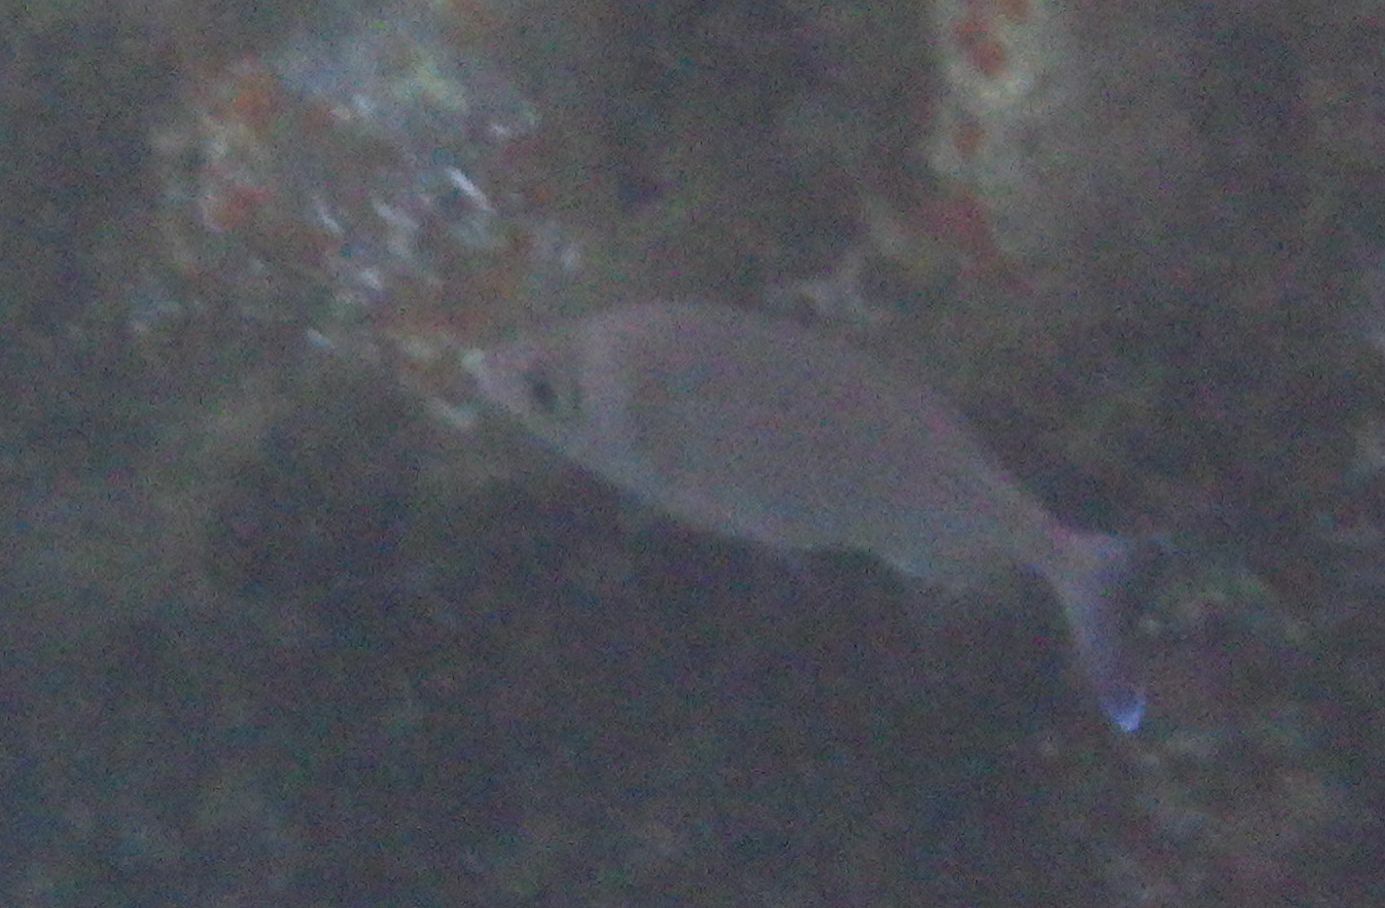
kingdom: Animalia
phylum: Chordata
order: Perciformes
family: Sparidae
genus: Spondyliosoma
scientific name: Spondyliosoma cantharus
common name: Black seabream
